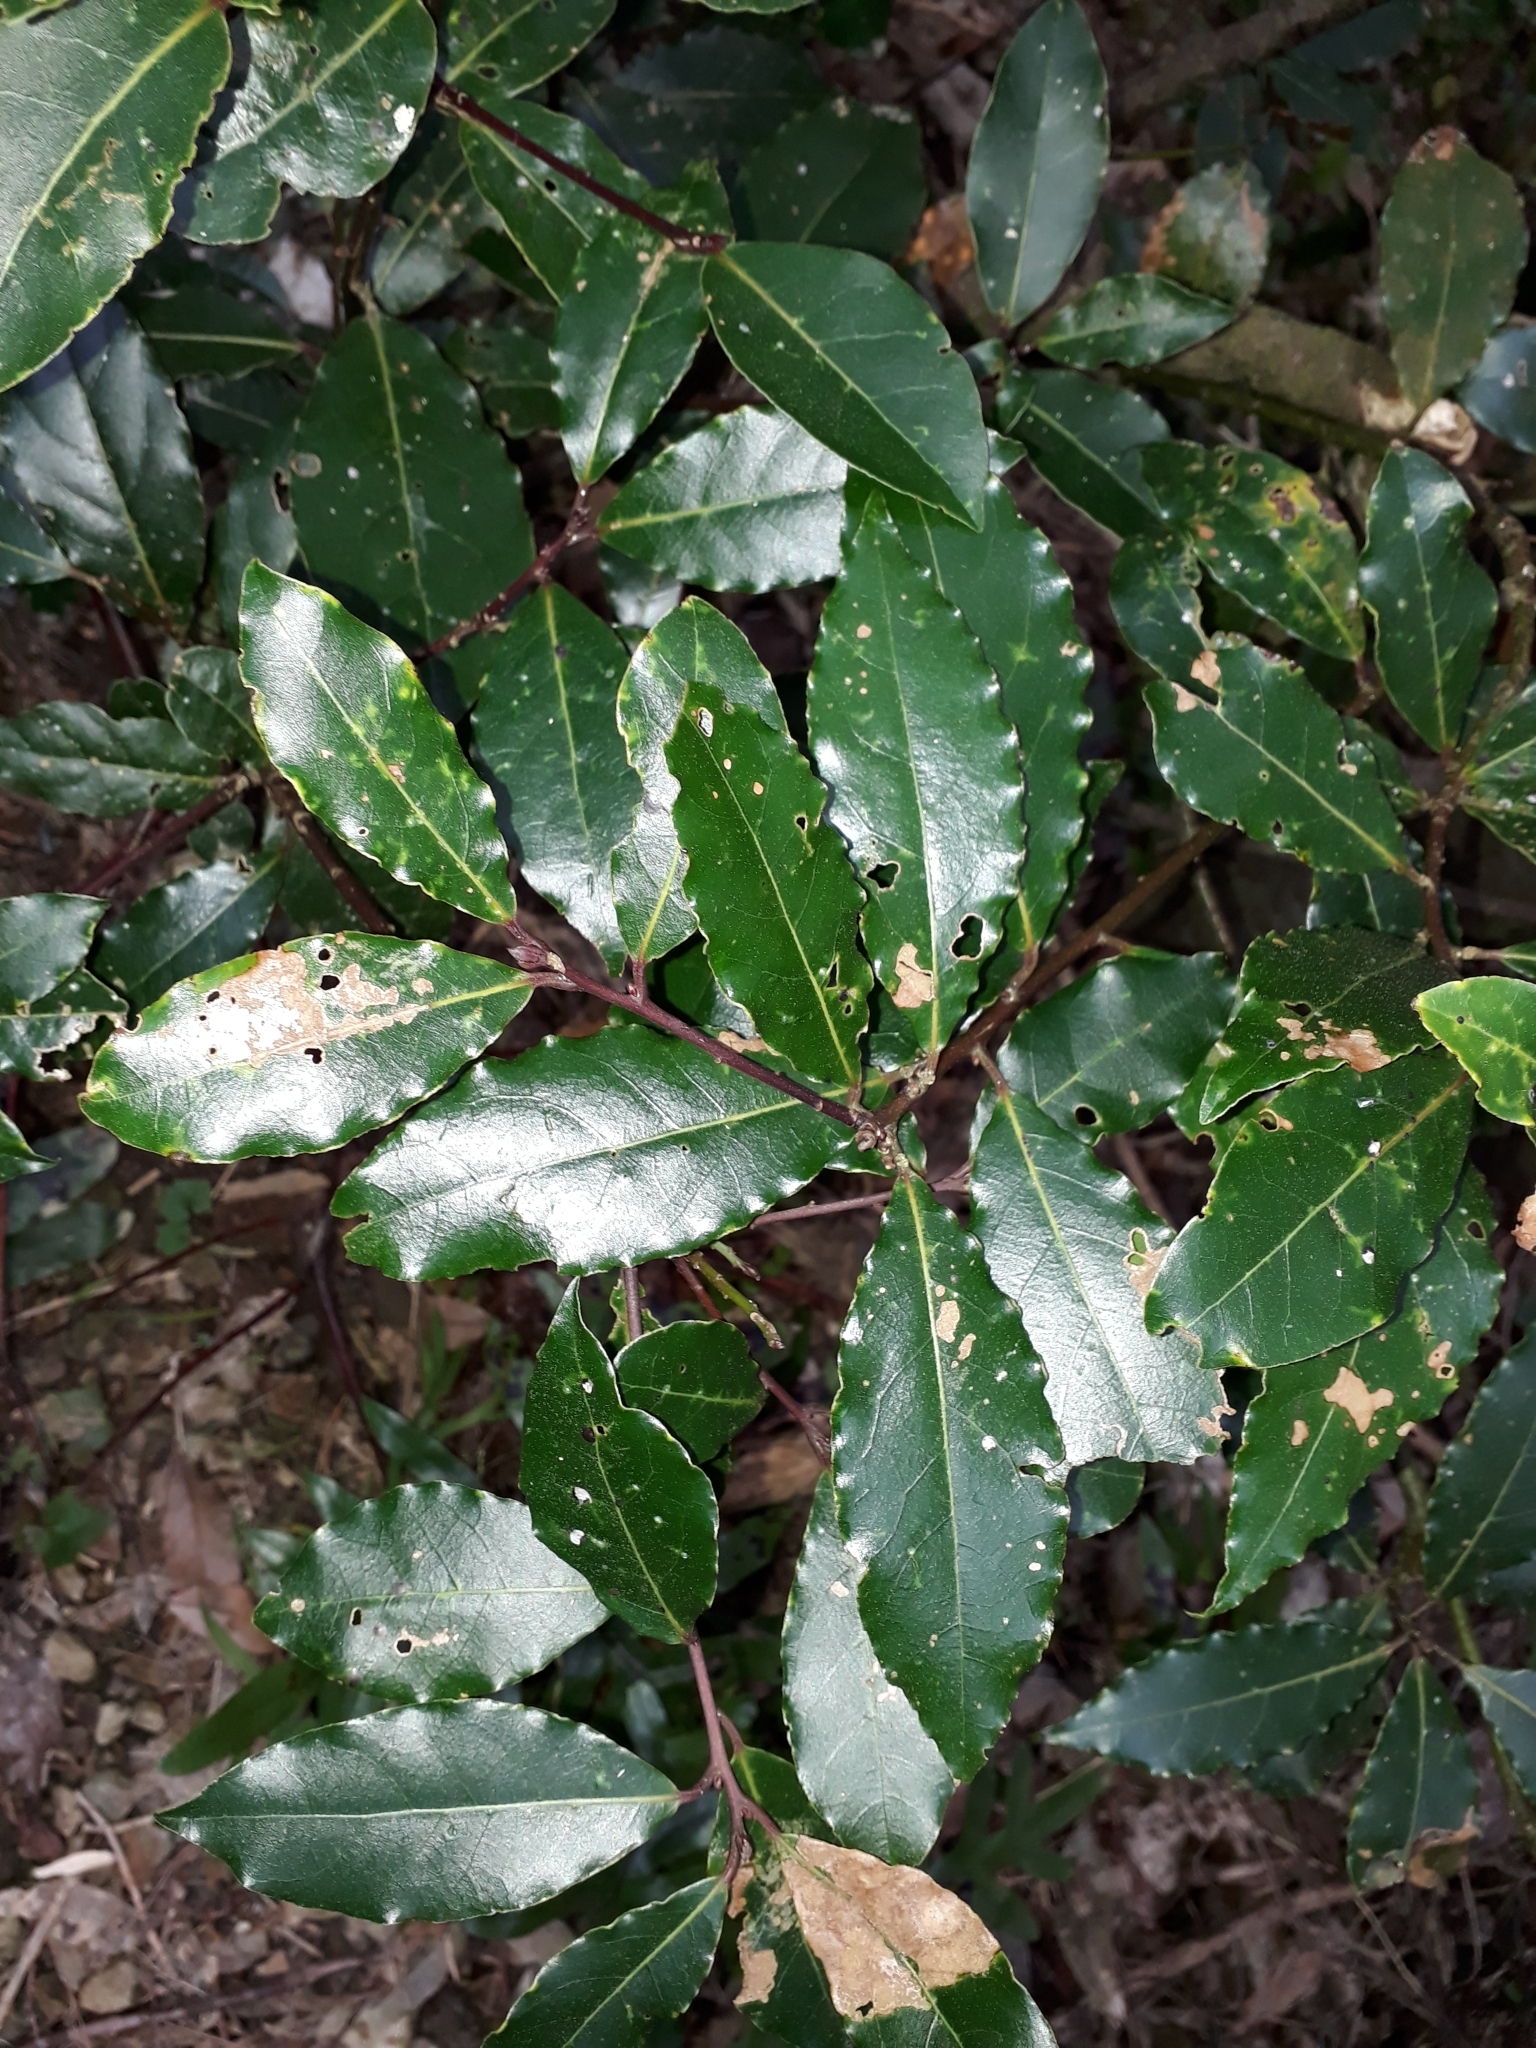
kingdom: Plantae
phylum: Tracheophyta
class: Magnoliopsida
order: Laurales
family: Lauraceae
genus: Laurus
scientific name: Laurus nobilis
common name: Bay
